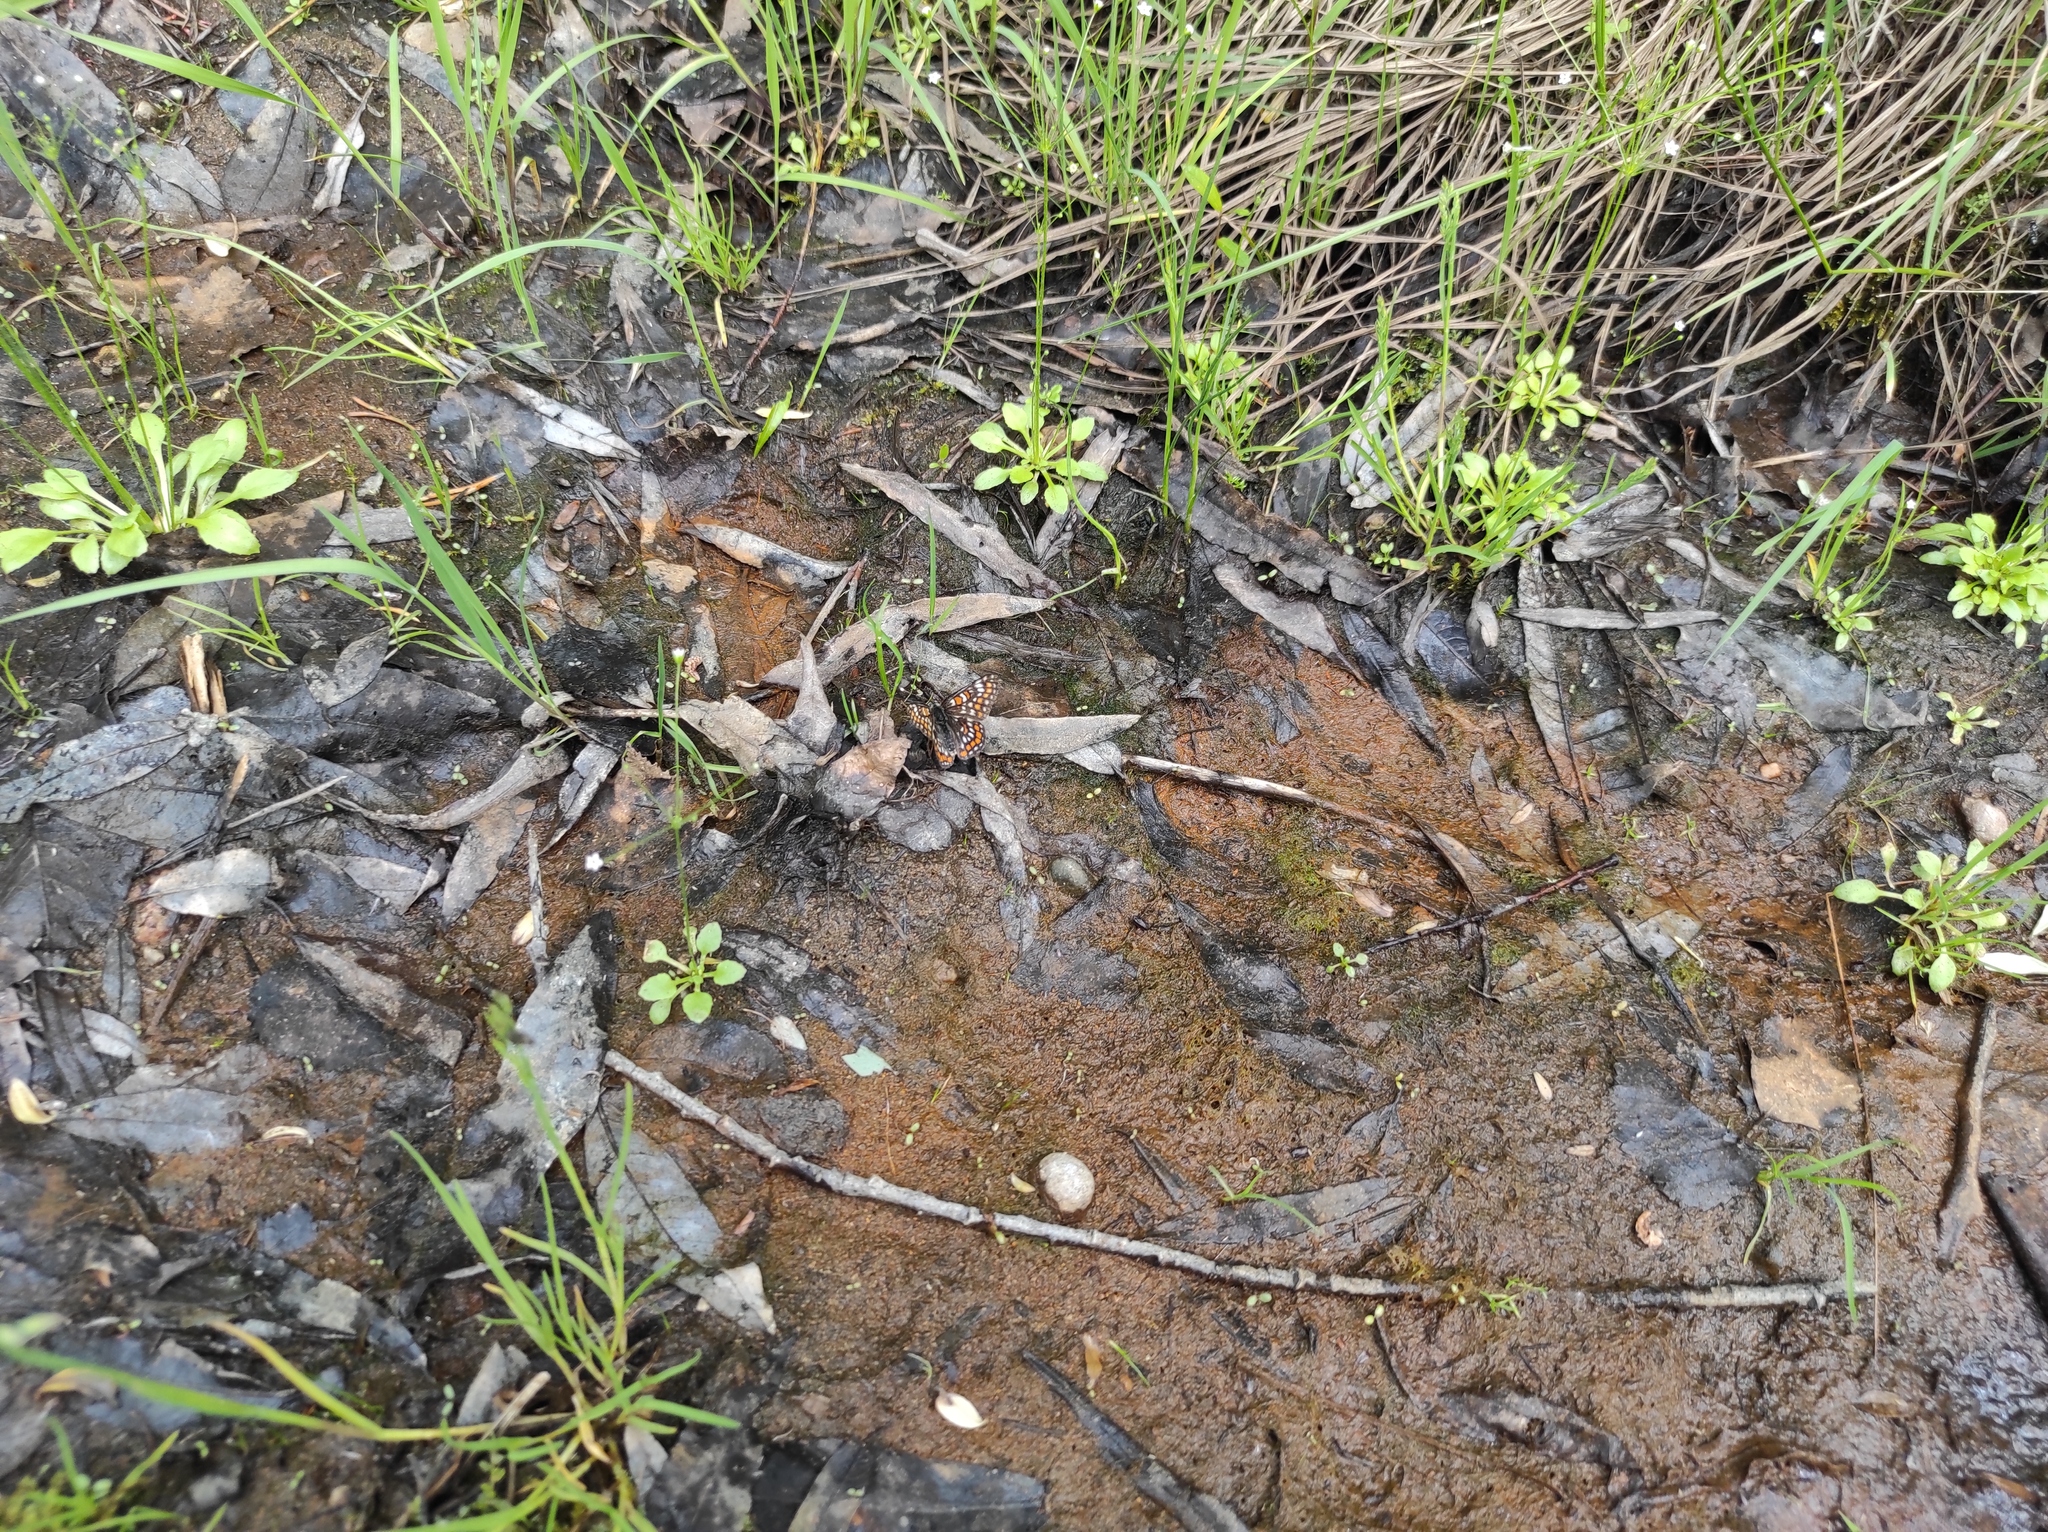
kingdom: Plantae
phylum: Tracheophyta
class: Magnoliopsida
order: Ericales
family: Primulaceae
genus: Androsace
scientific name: Androsace filiformis
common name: Filiform rock jasmine
